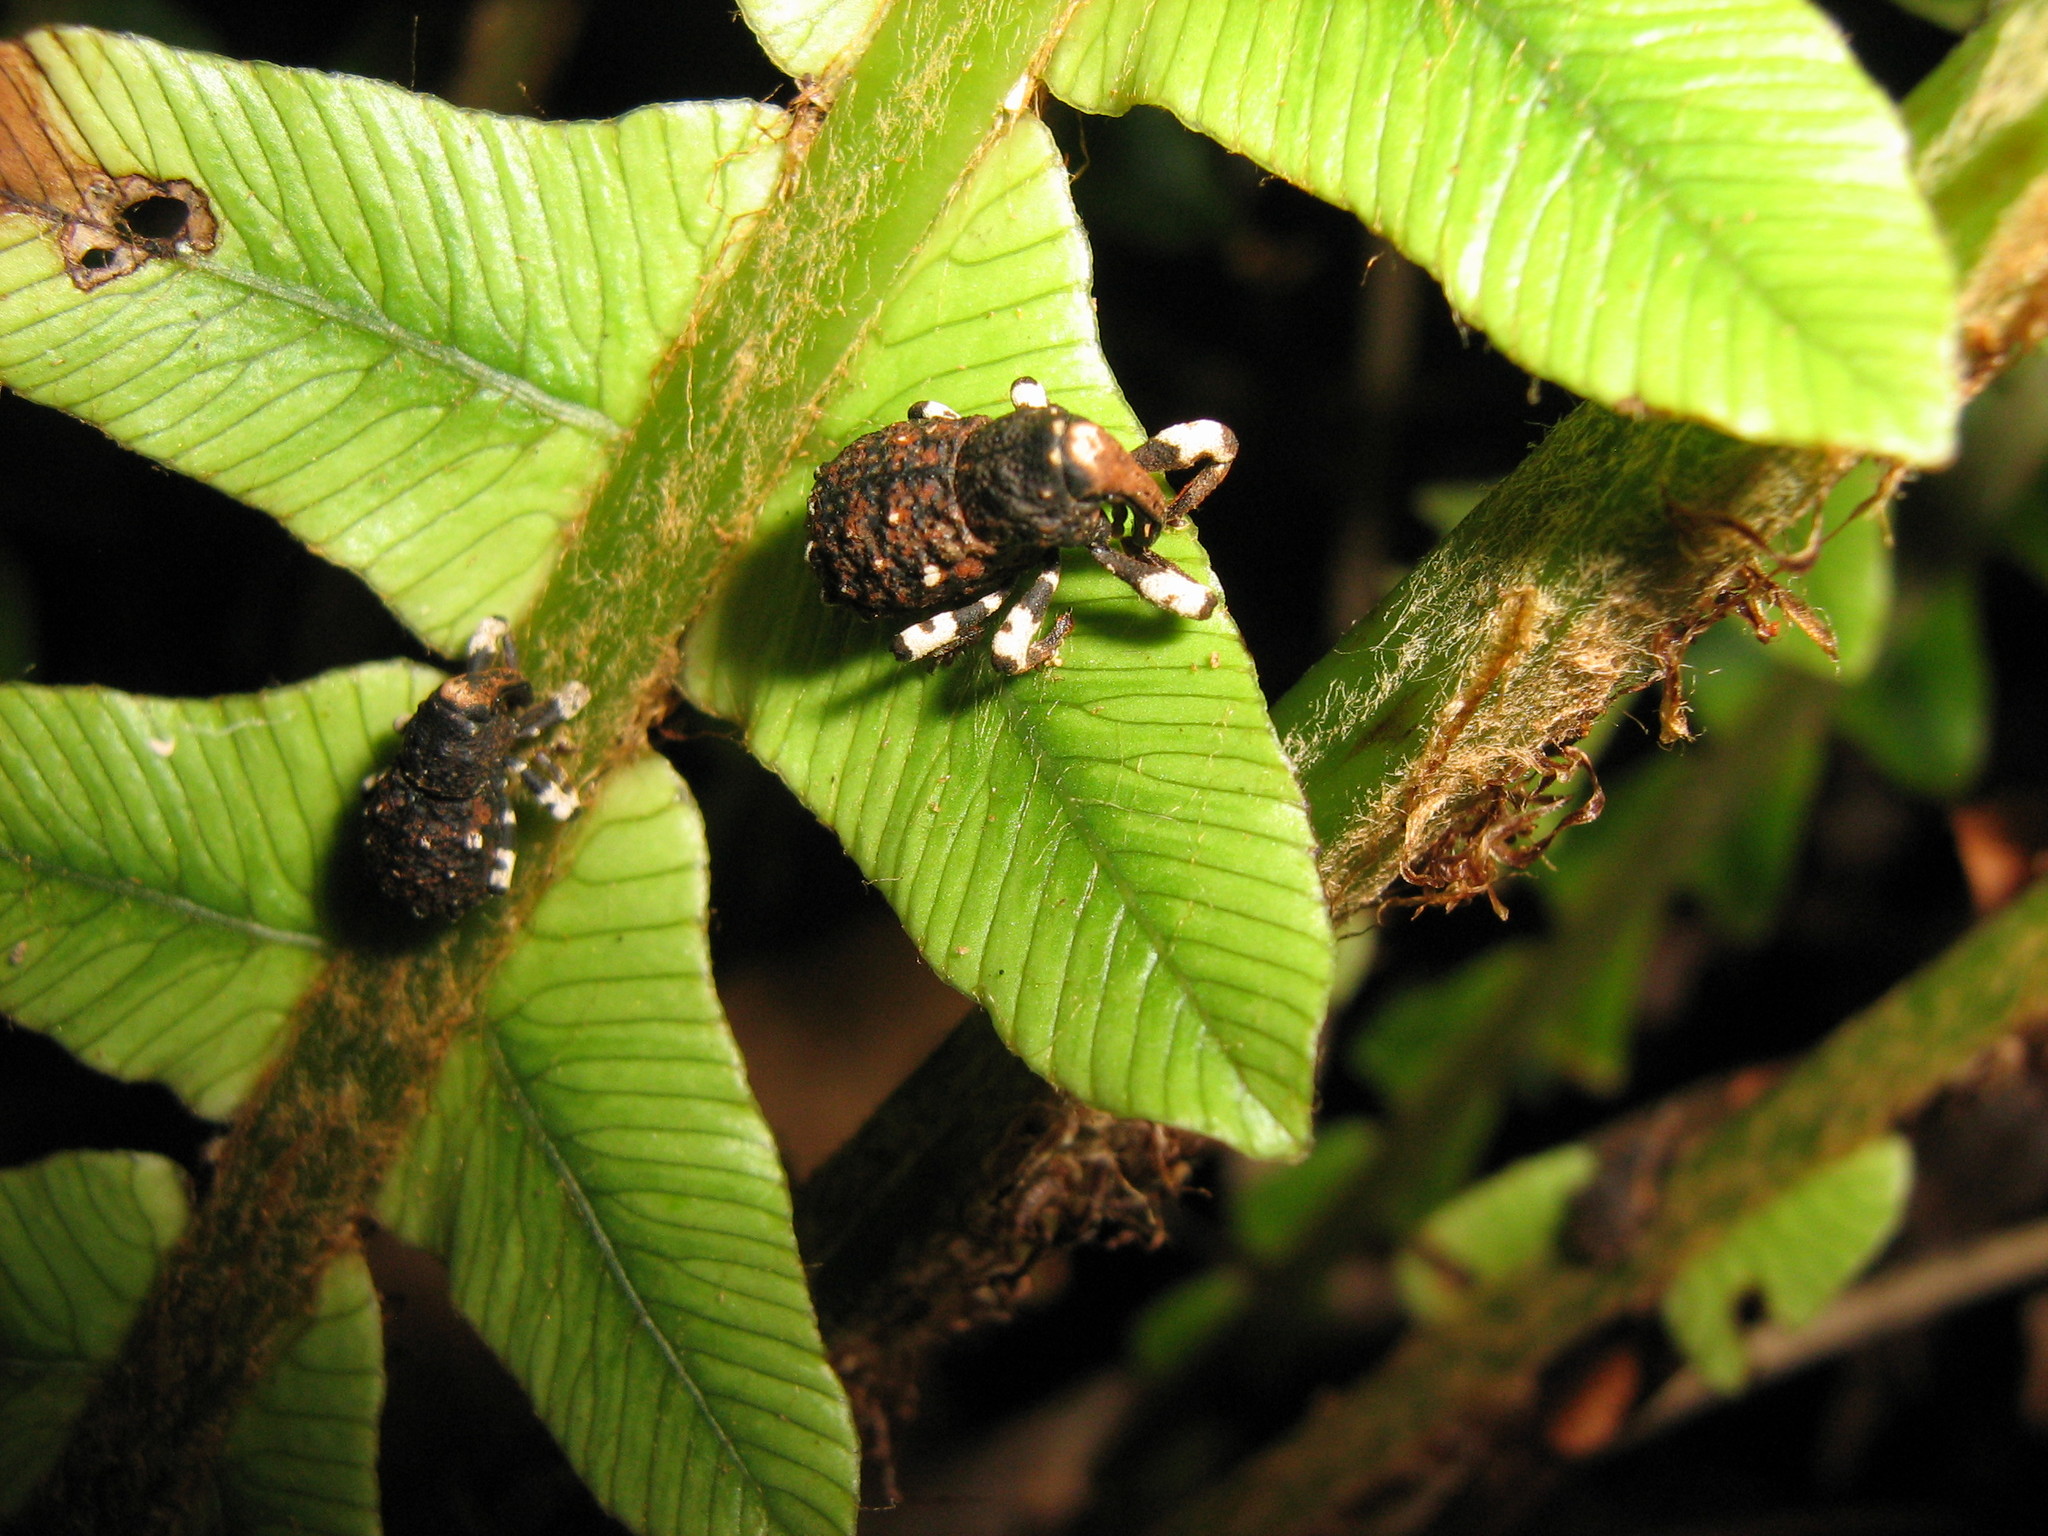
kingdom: Animalia
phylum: Arthropoda
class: Insecta
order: Coleoptera
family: Curculionidae
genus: Megacolabus
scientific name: Megacolabus harrisi
